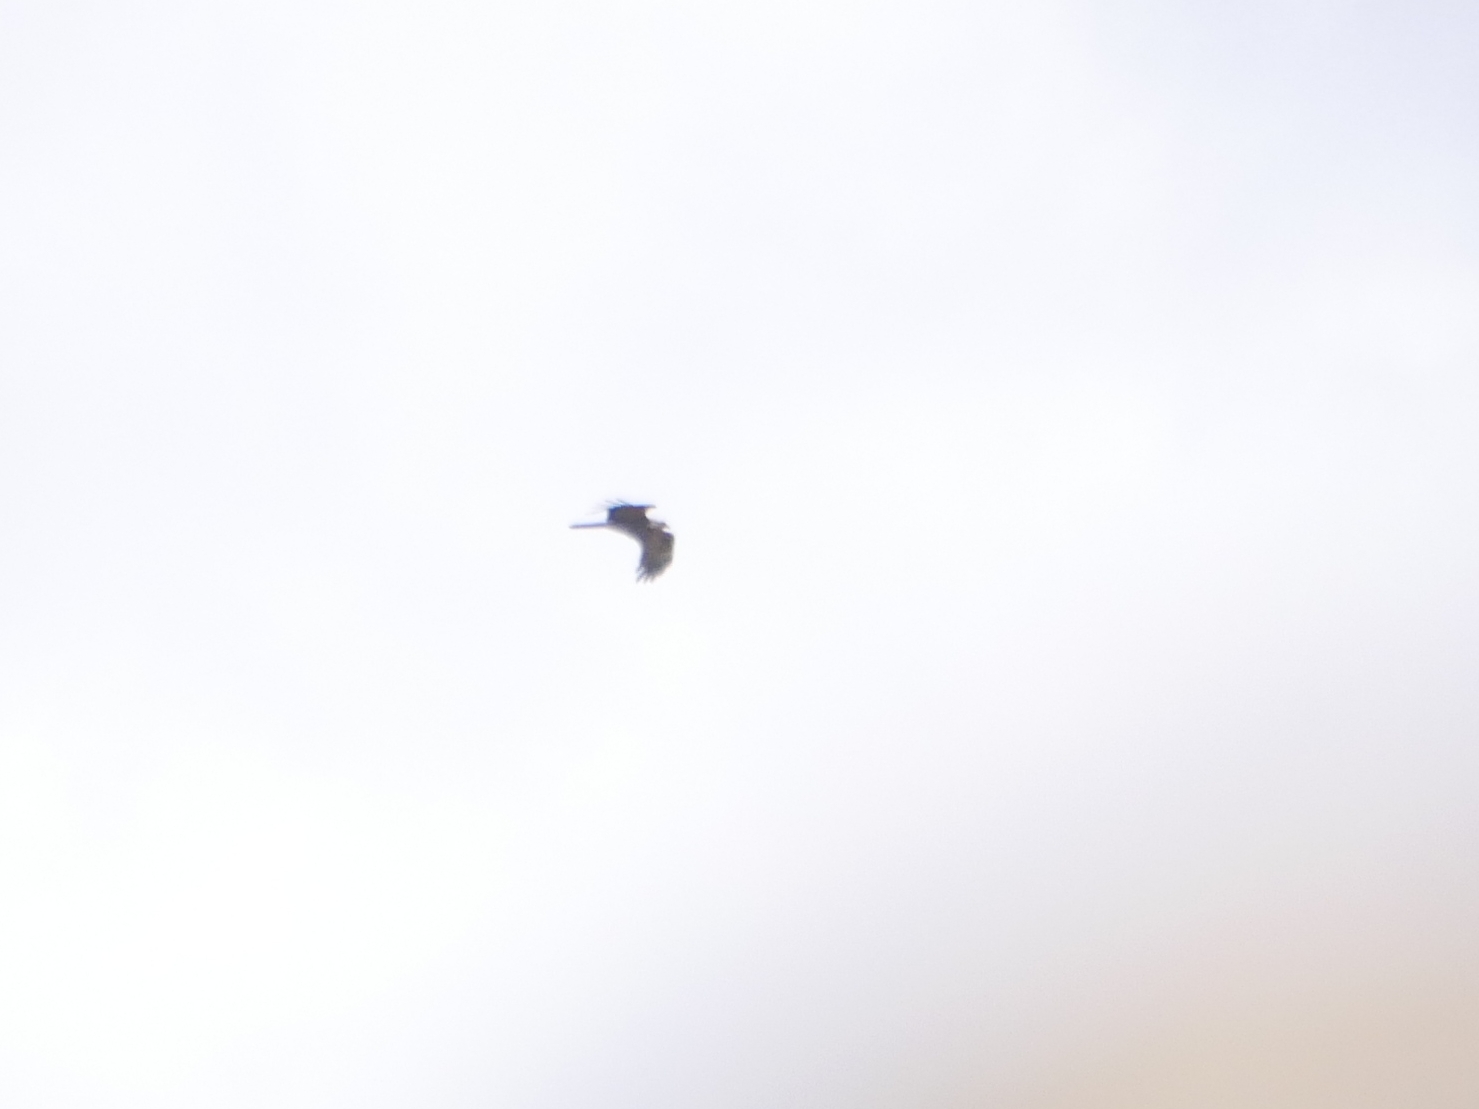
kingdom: Animalia
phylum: Chordata
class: Aves
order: Accipitriformes
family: Accipitridae
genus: Circus
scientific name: Circus aeruginosus
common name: Western marsh harrier
